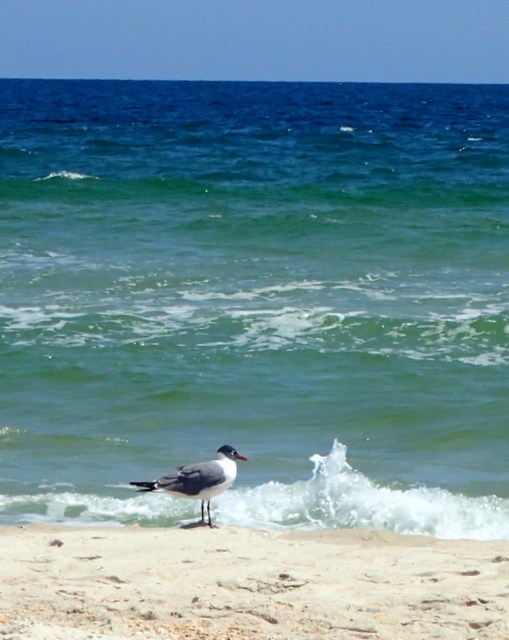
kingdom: Animalia
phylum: Chordata
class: Aves
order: Charadriiformes
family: Laridae
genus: Leucophaeus
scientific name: Leucophaeus atricilla
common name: Laughing gull
